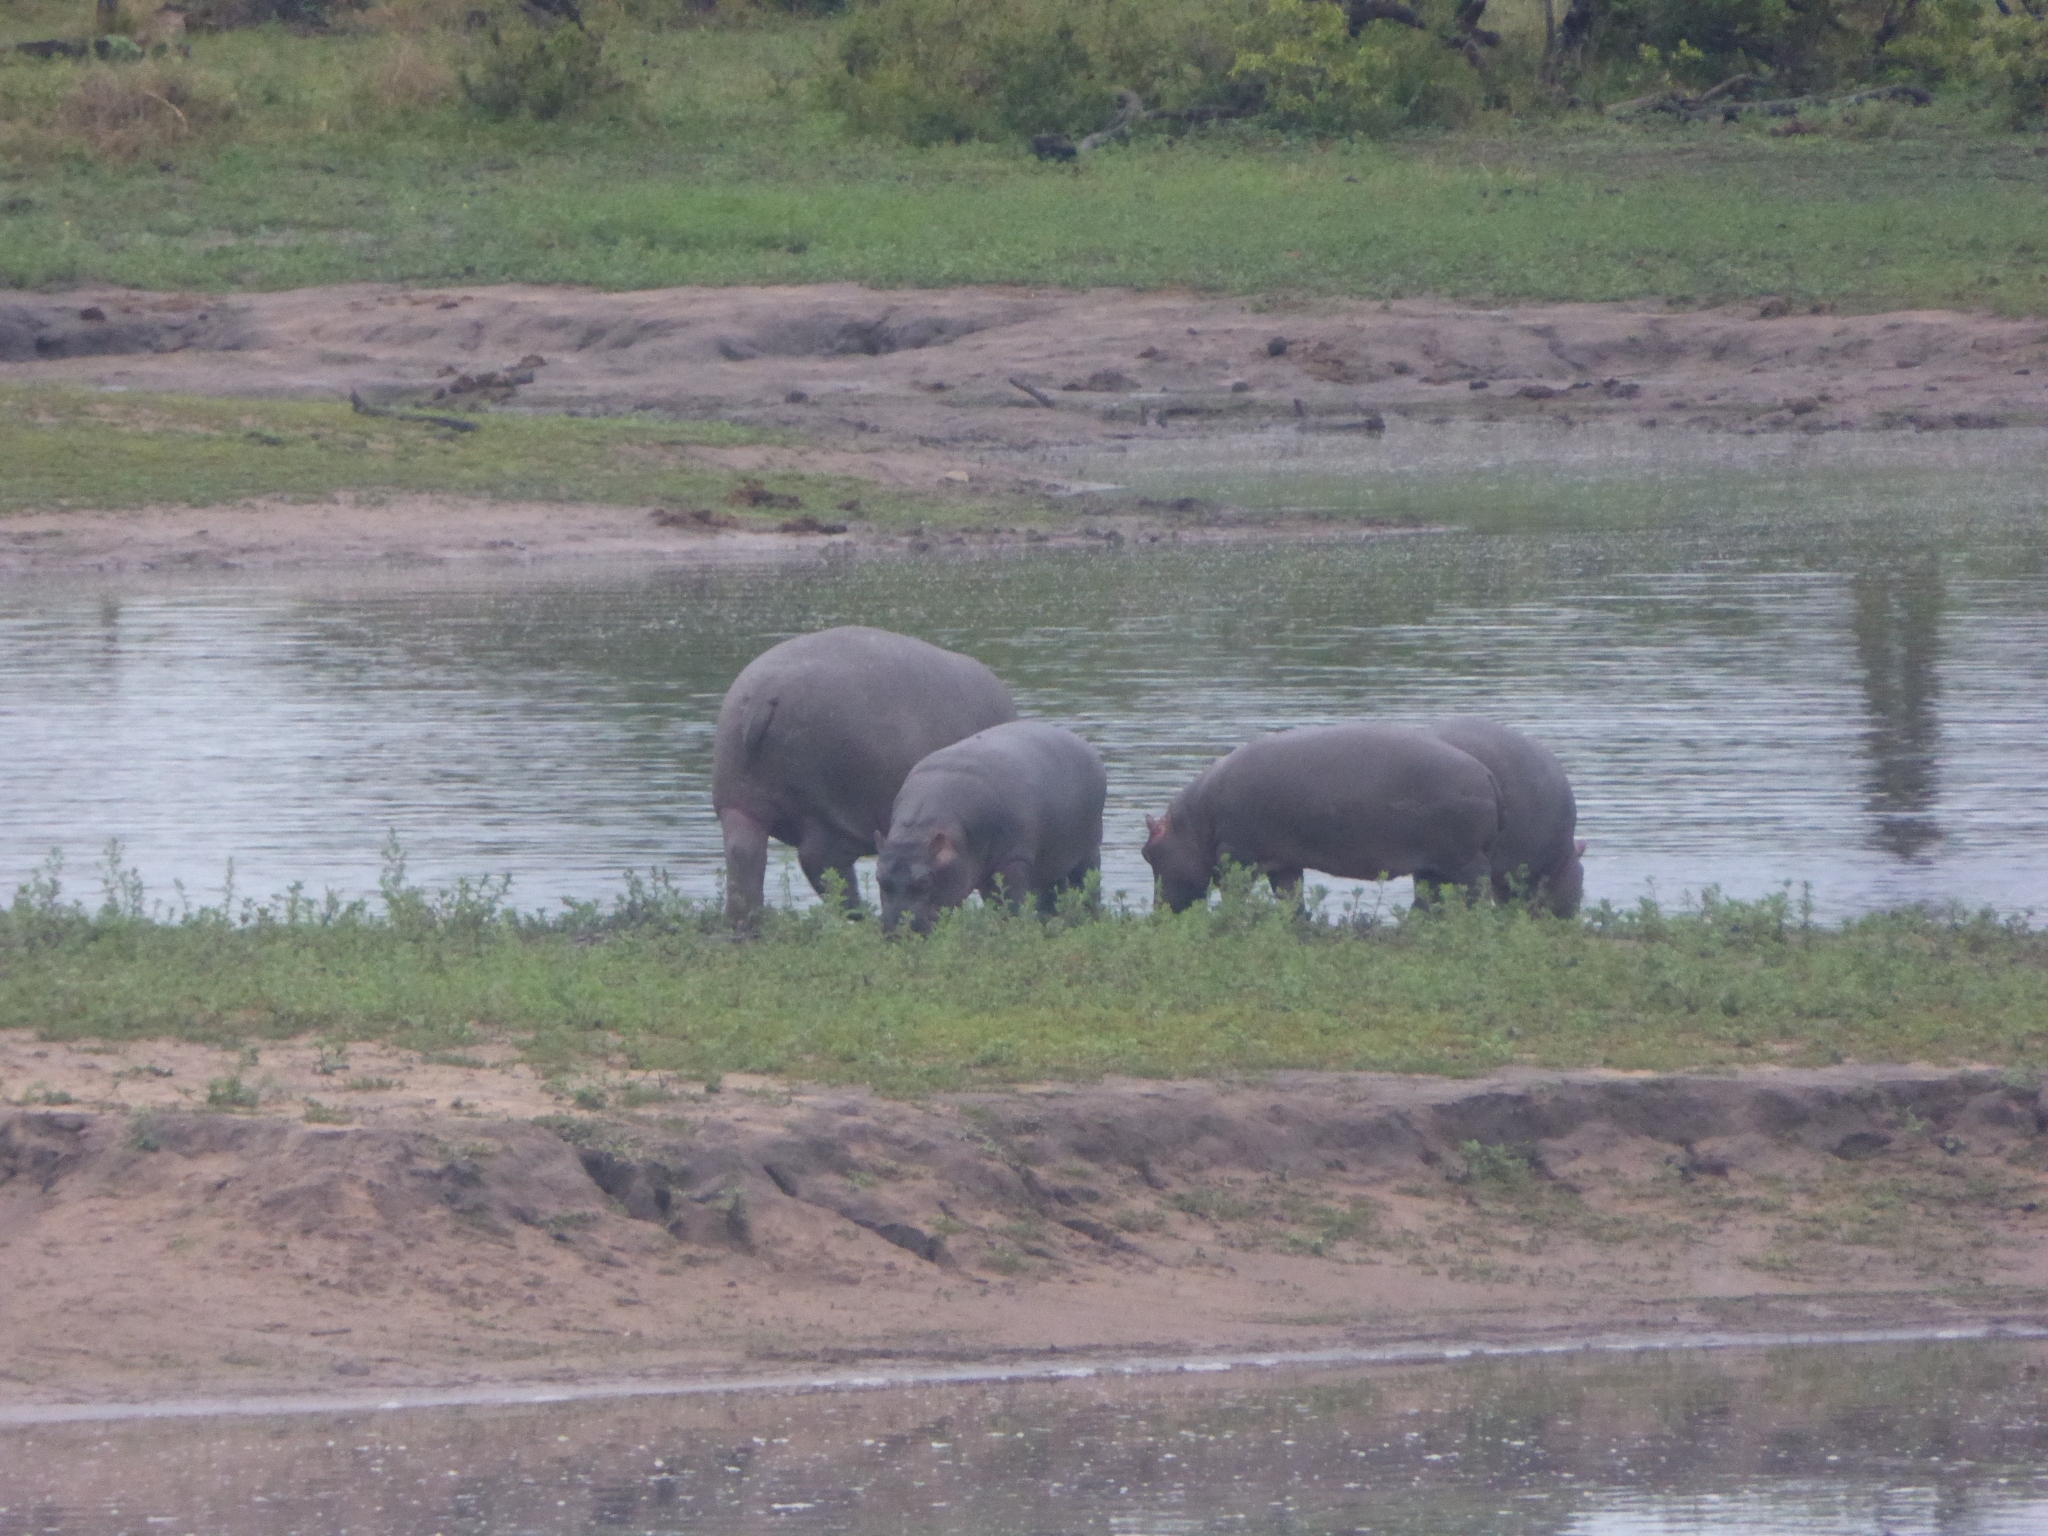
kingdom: Animalia
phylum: Chordata
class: Mammalia
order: Artiodactyla
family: Hippopotamidae
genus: Hippopotamus
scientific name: Hippopotamus amphibius
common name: Common hippopotamus
